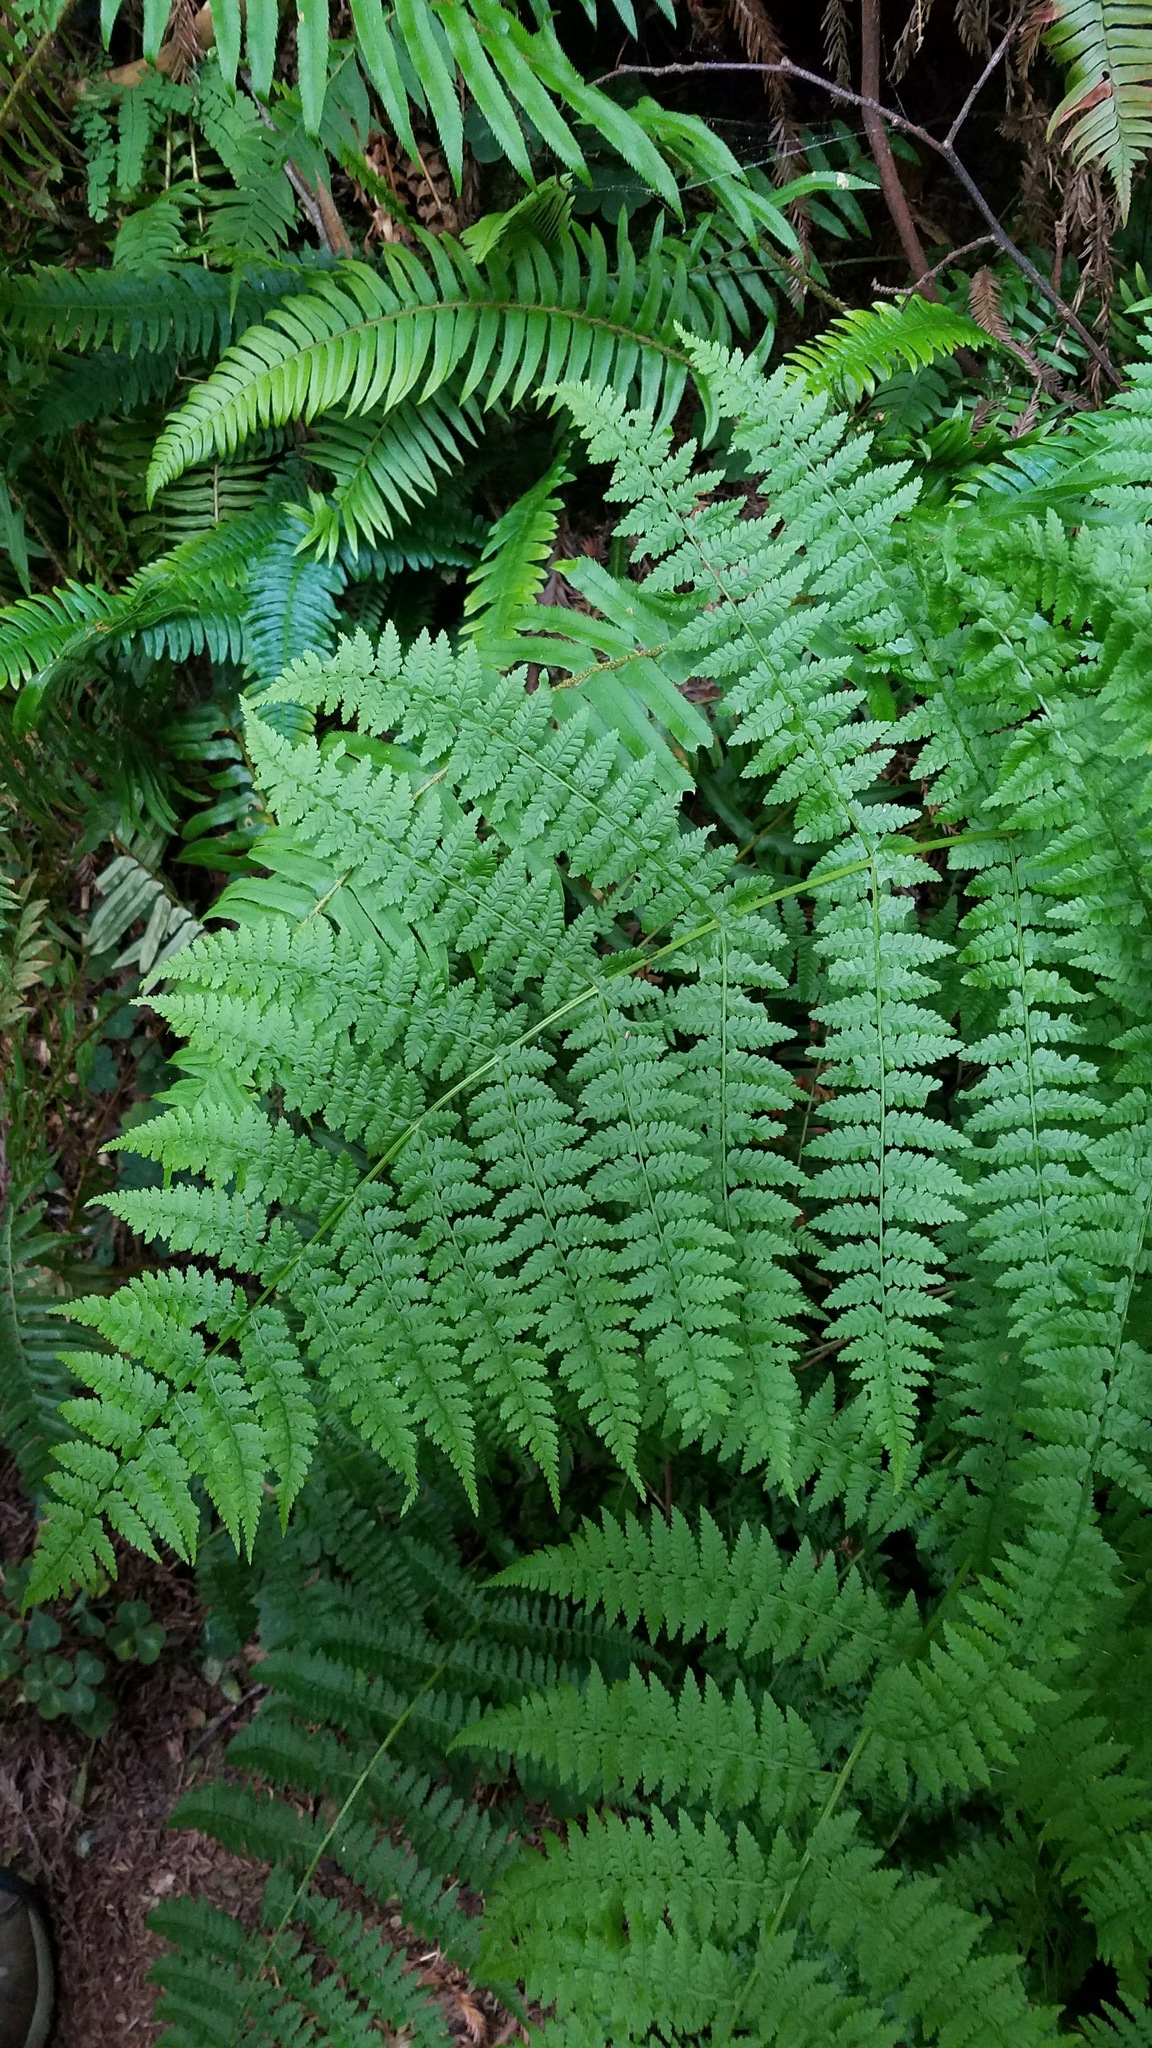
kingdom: Plantae
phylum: Tracheophyta
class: Polypodiopsida
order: Polypodiales
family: Athyriaceae
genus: Athyrium
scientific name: Athyrium filix-femina
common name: Lady fern
